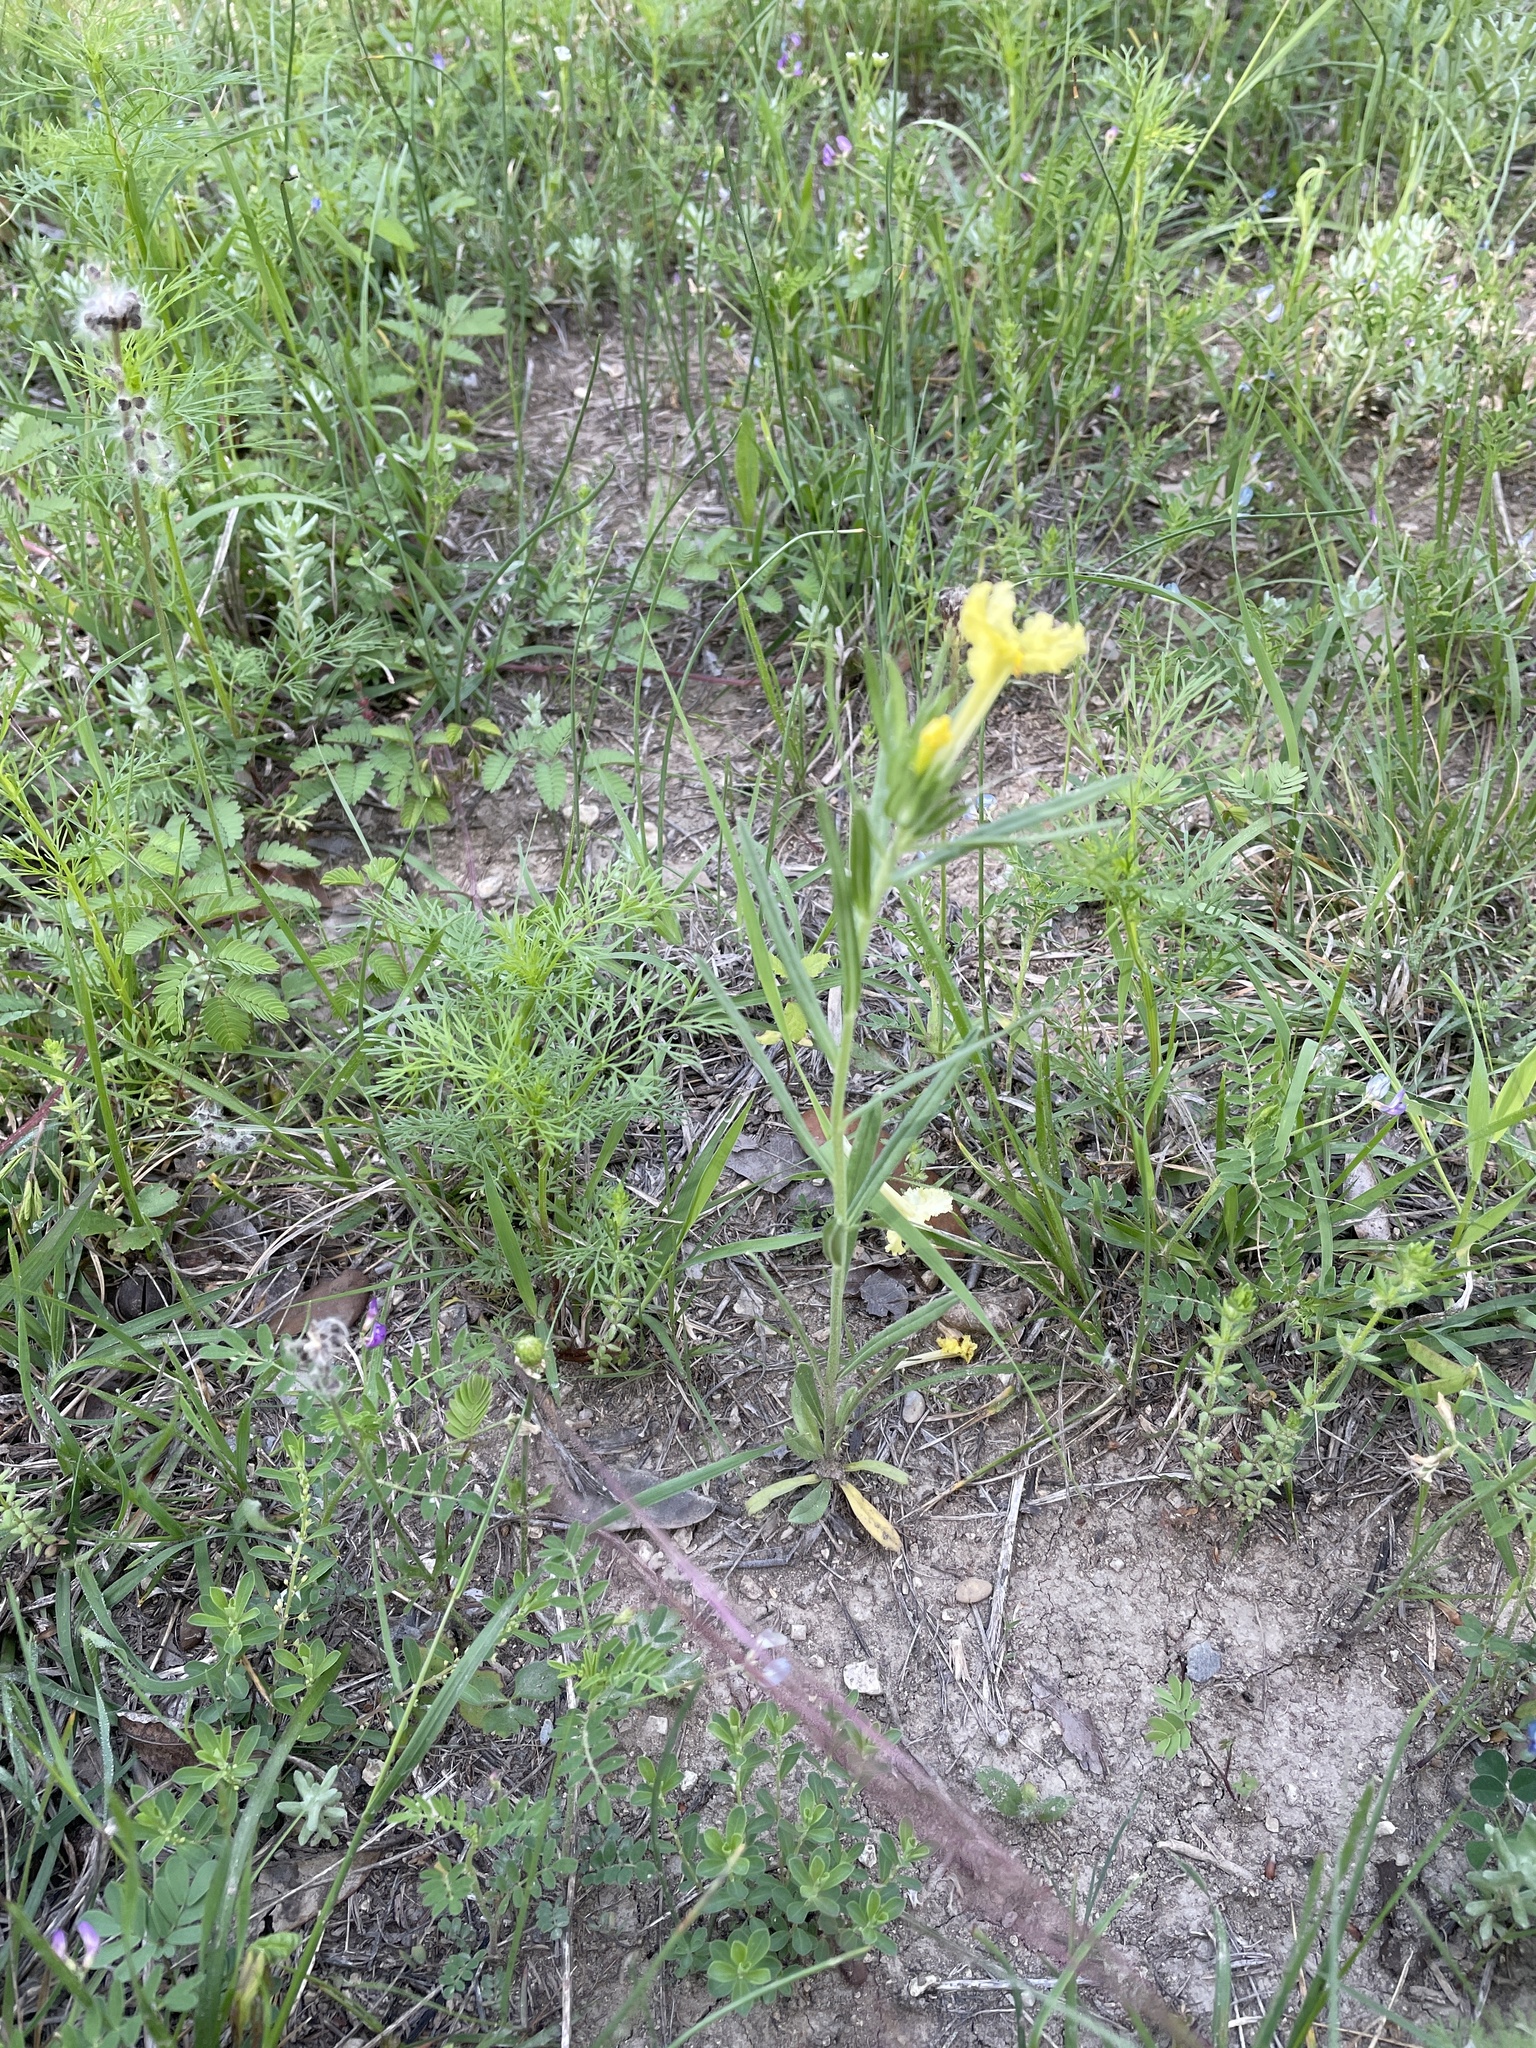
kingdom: Plantae
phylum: Tracheophyta
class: Magnoliopsida
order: Boraginales
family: Boraginaceae
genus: Lithospermum
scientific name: Lithospermum incisum
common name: Fringed gromwell
